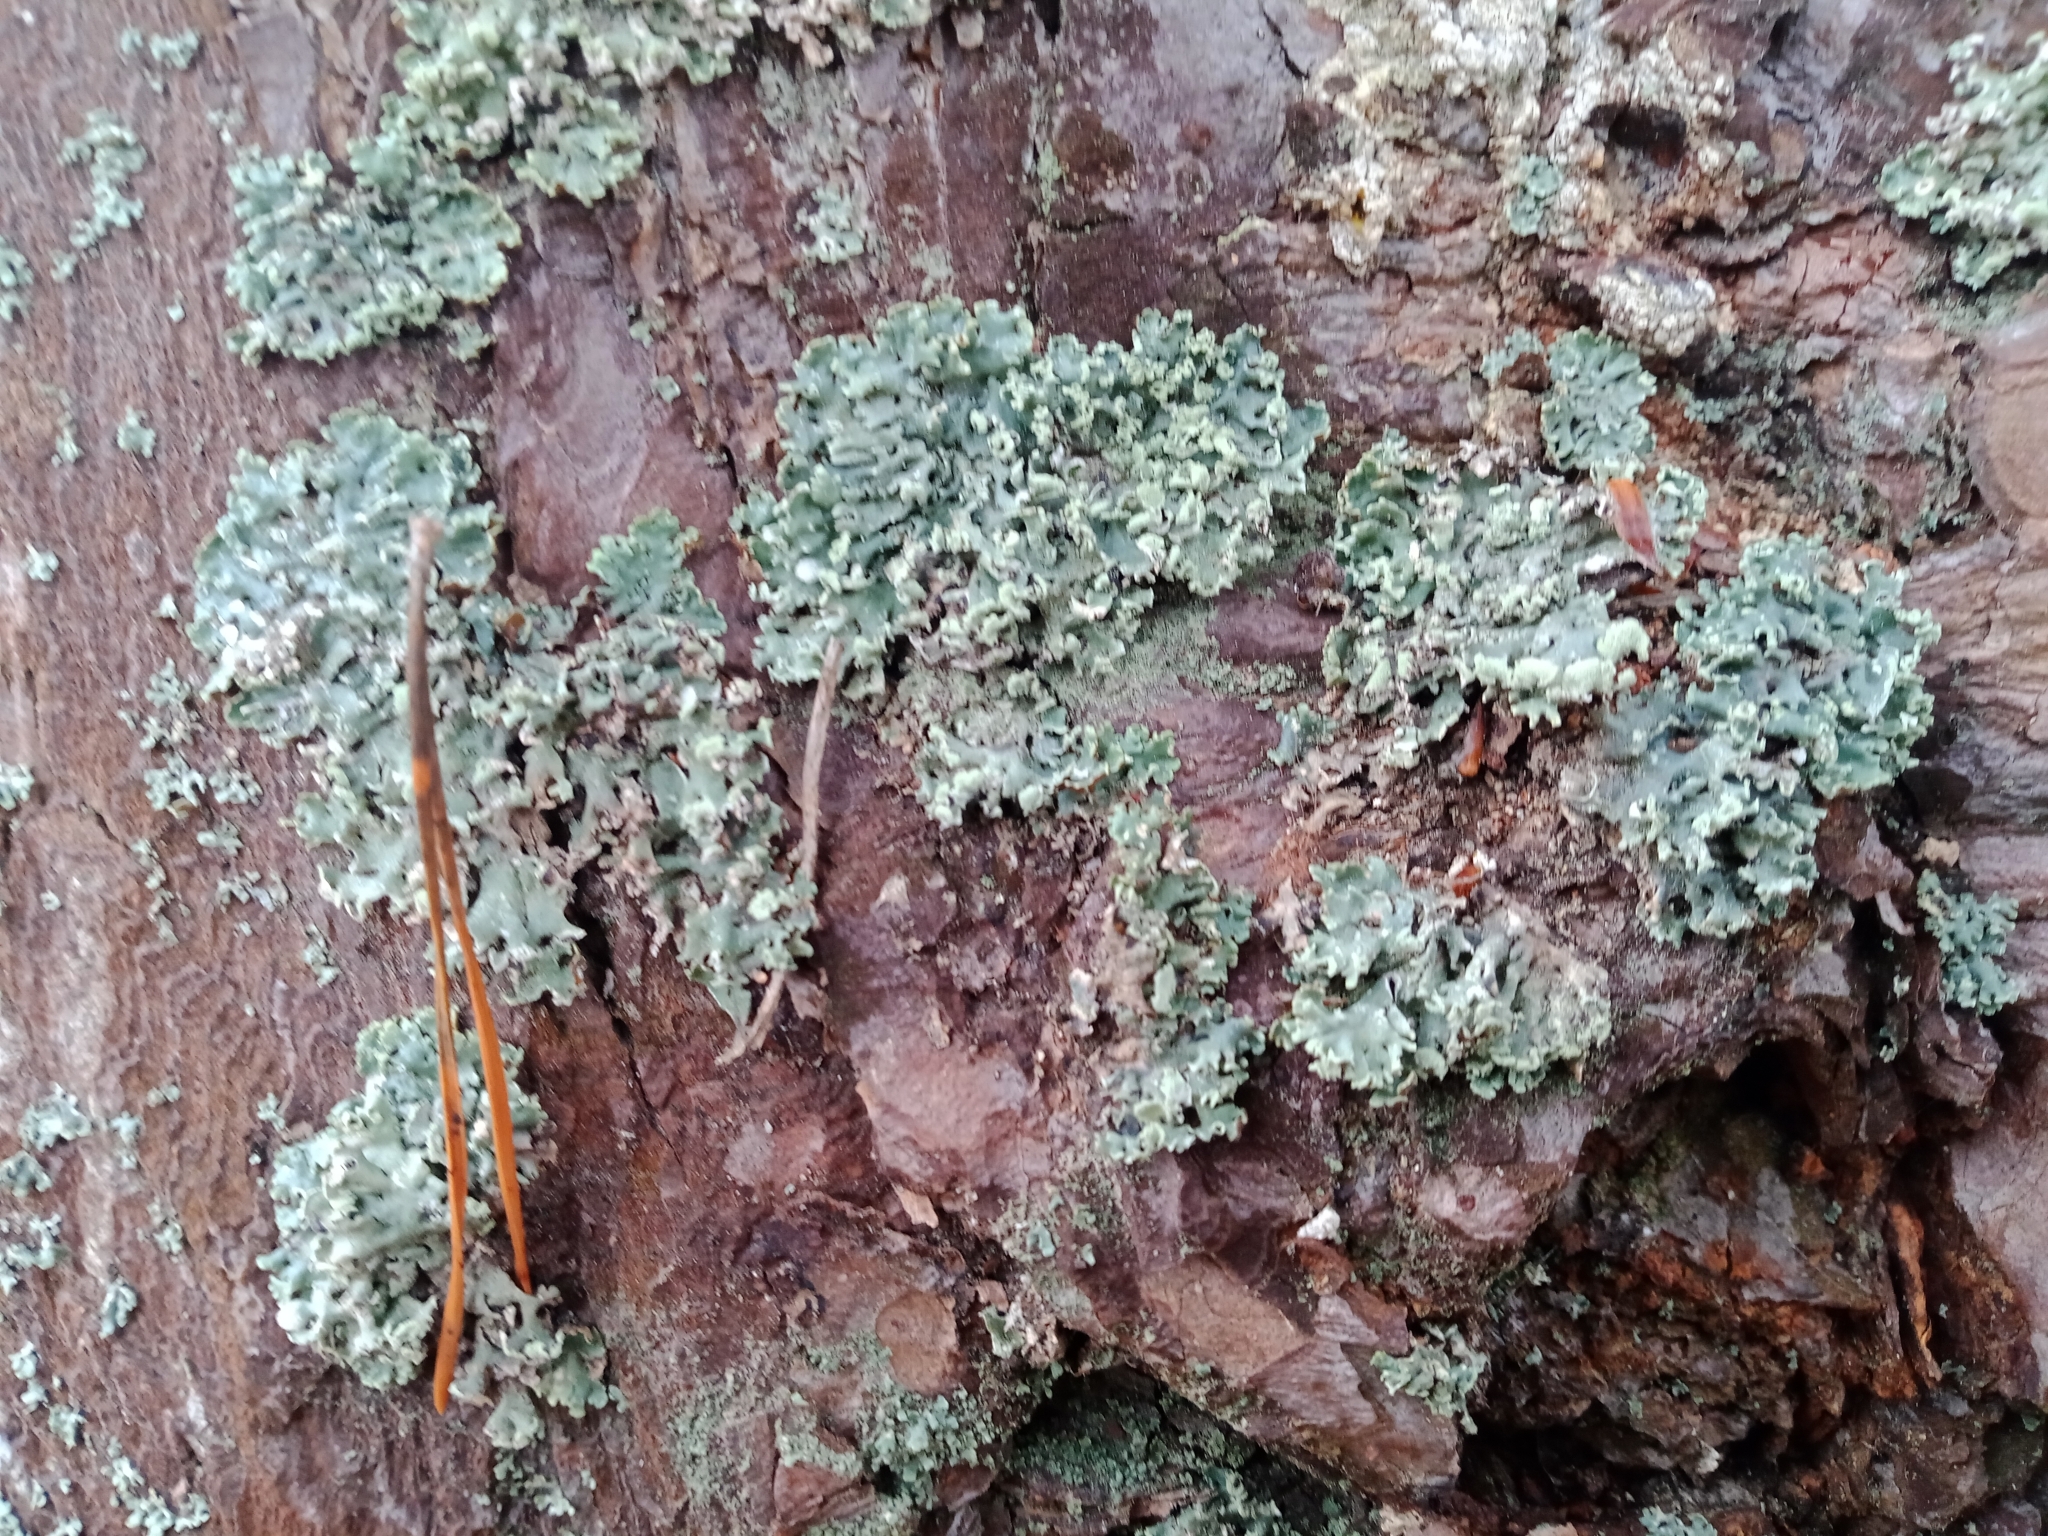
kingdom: Fungi
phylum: Ascomycota
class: Lecanoromycetes
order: Lecanorales
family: Parmeliaceae
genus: Hypogymnia
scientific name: Hypogymnia physodes
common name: Dark crottle
